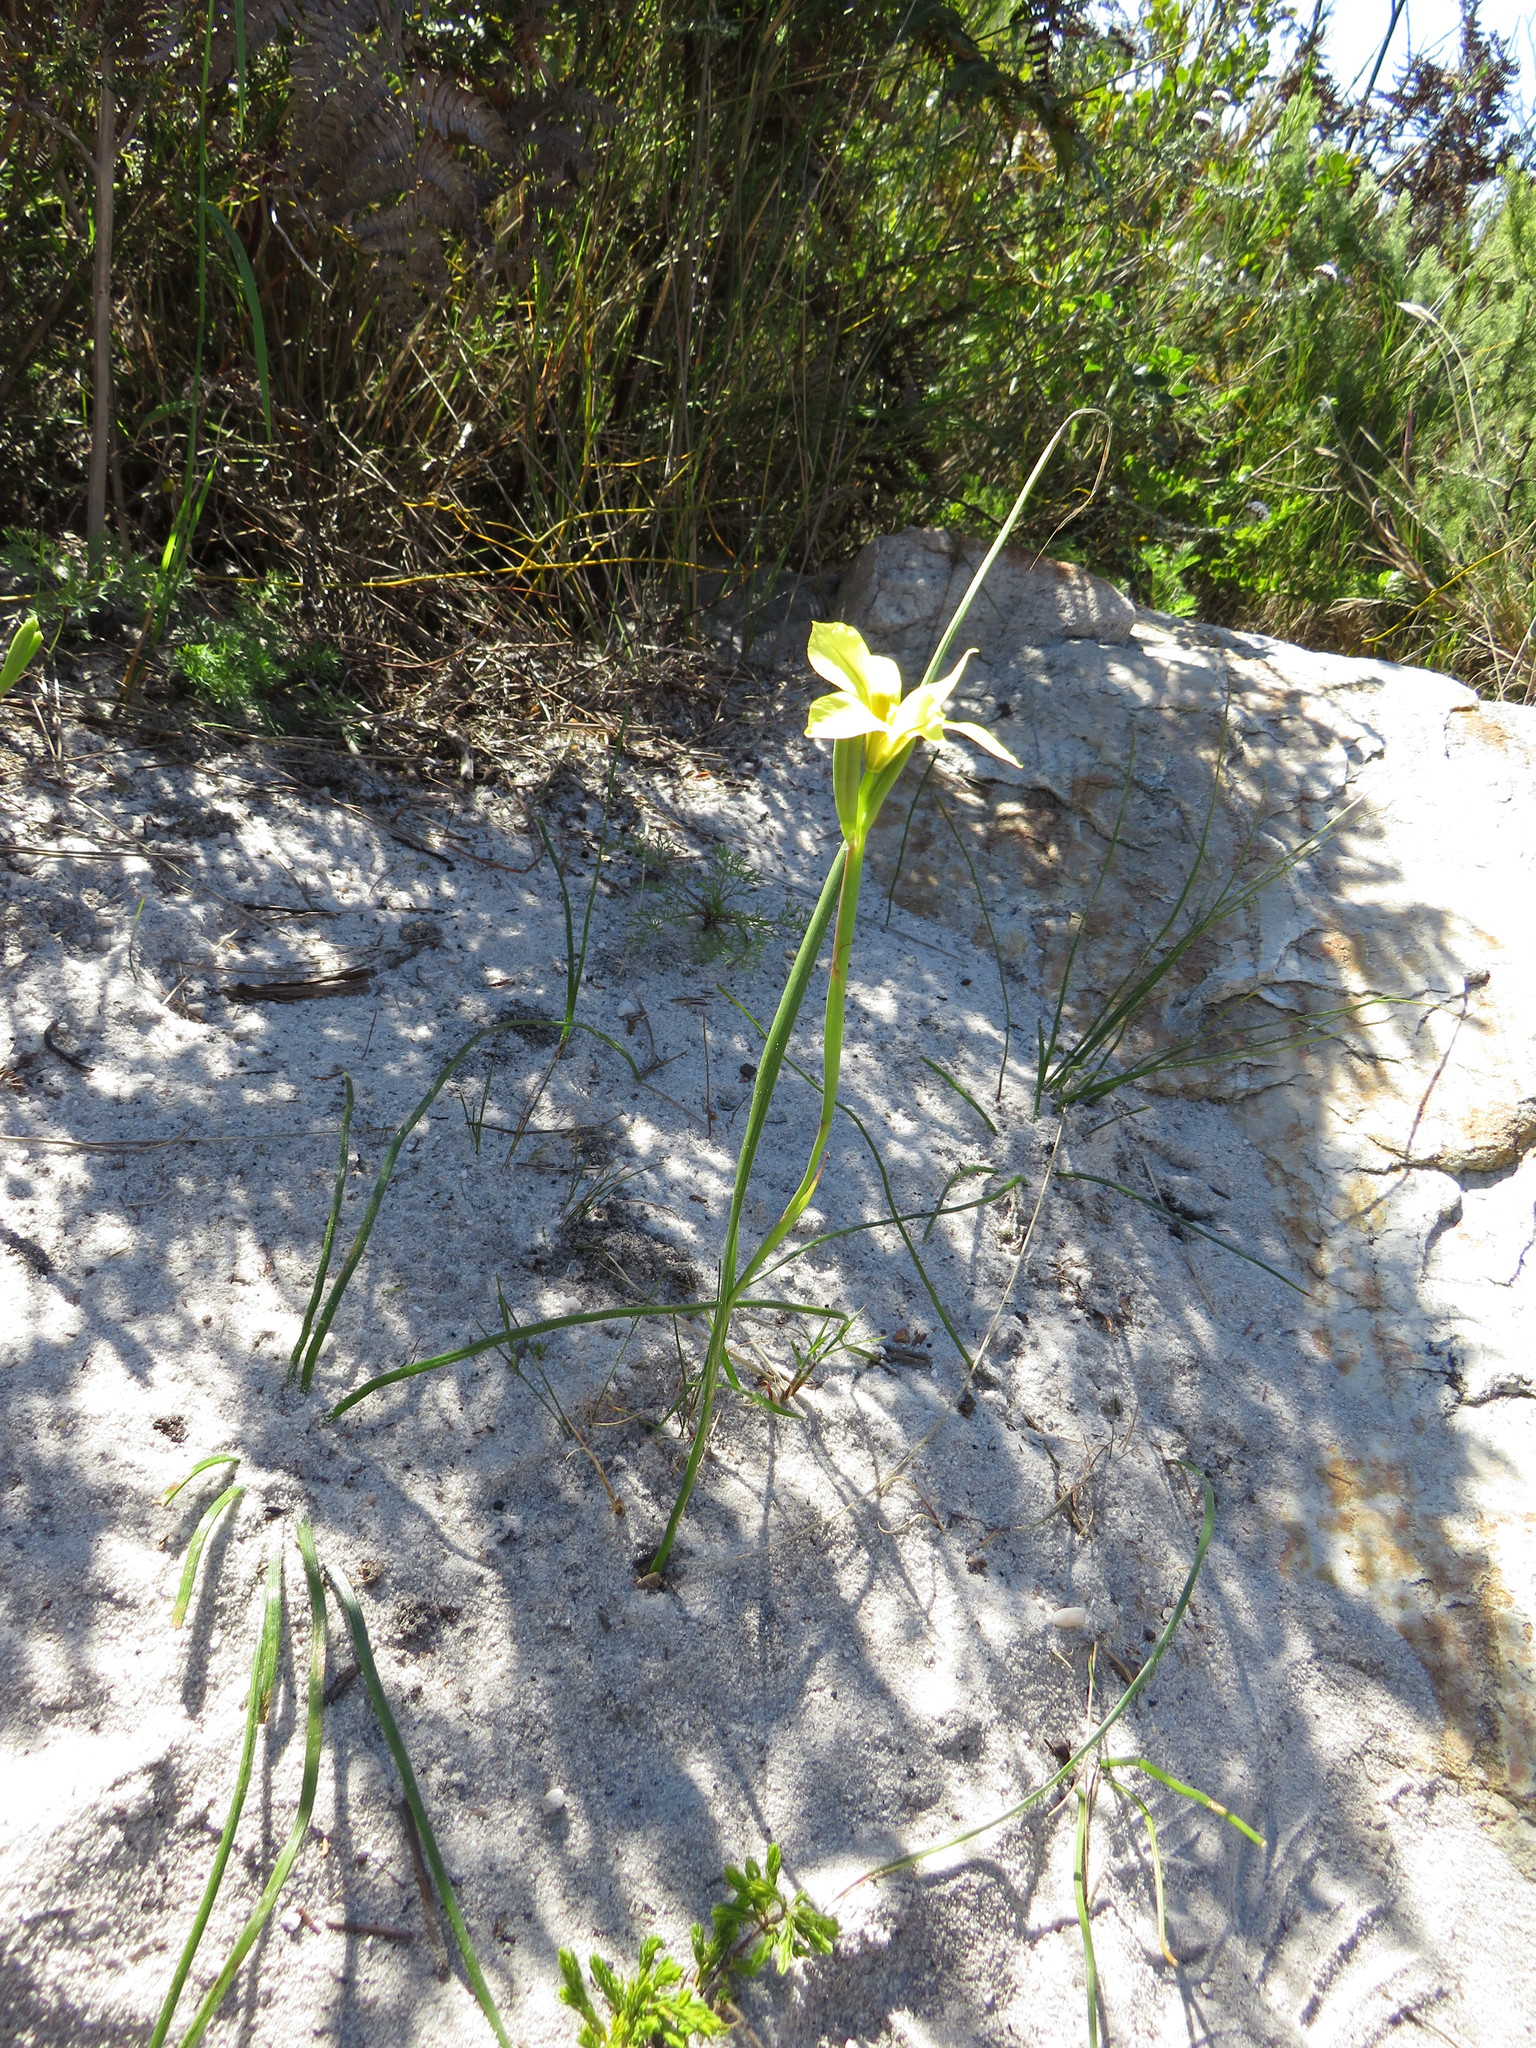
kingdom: Plantae
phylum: Tracheophyta
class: Liliopsida
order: Asparagales
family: Iridaceae
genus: Moraea
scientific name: Moraea collina
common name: Cape-tulip
